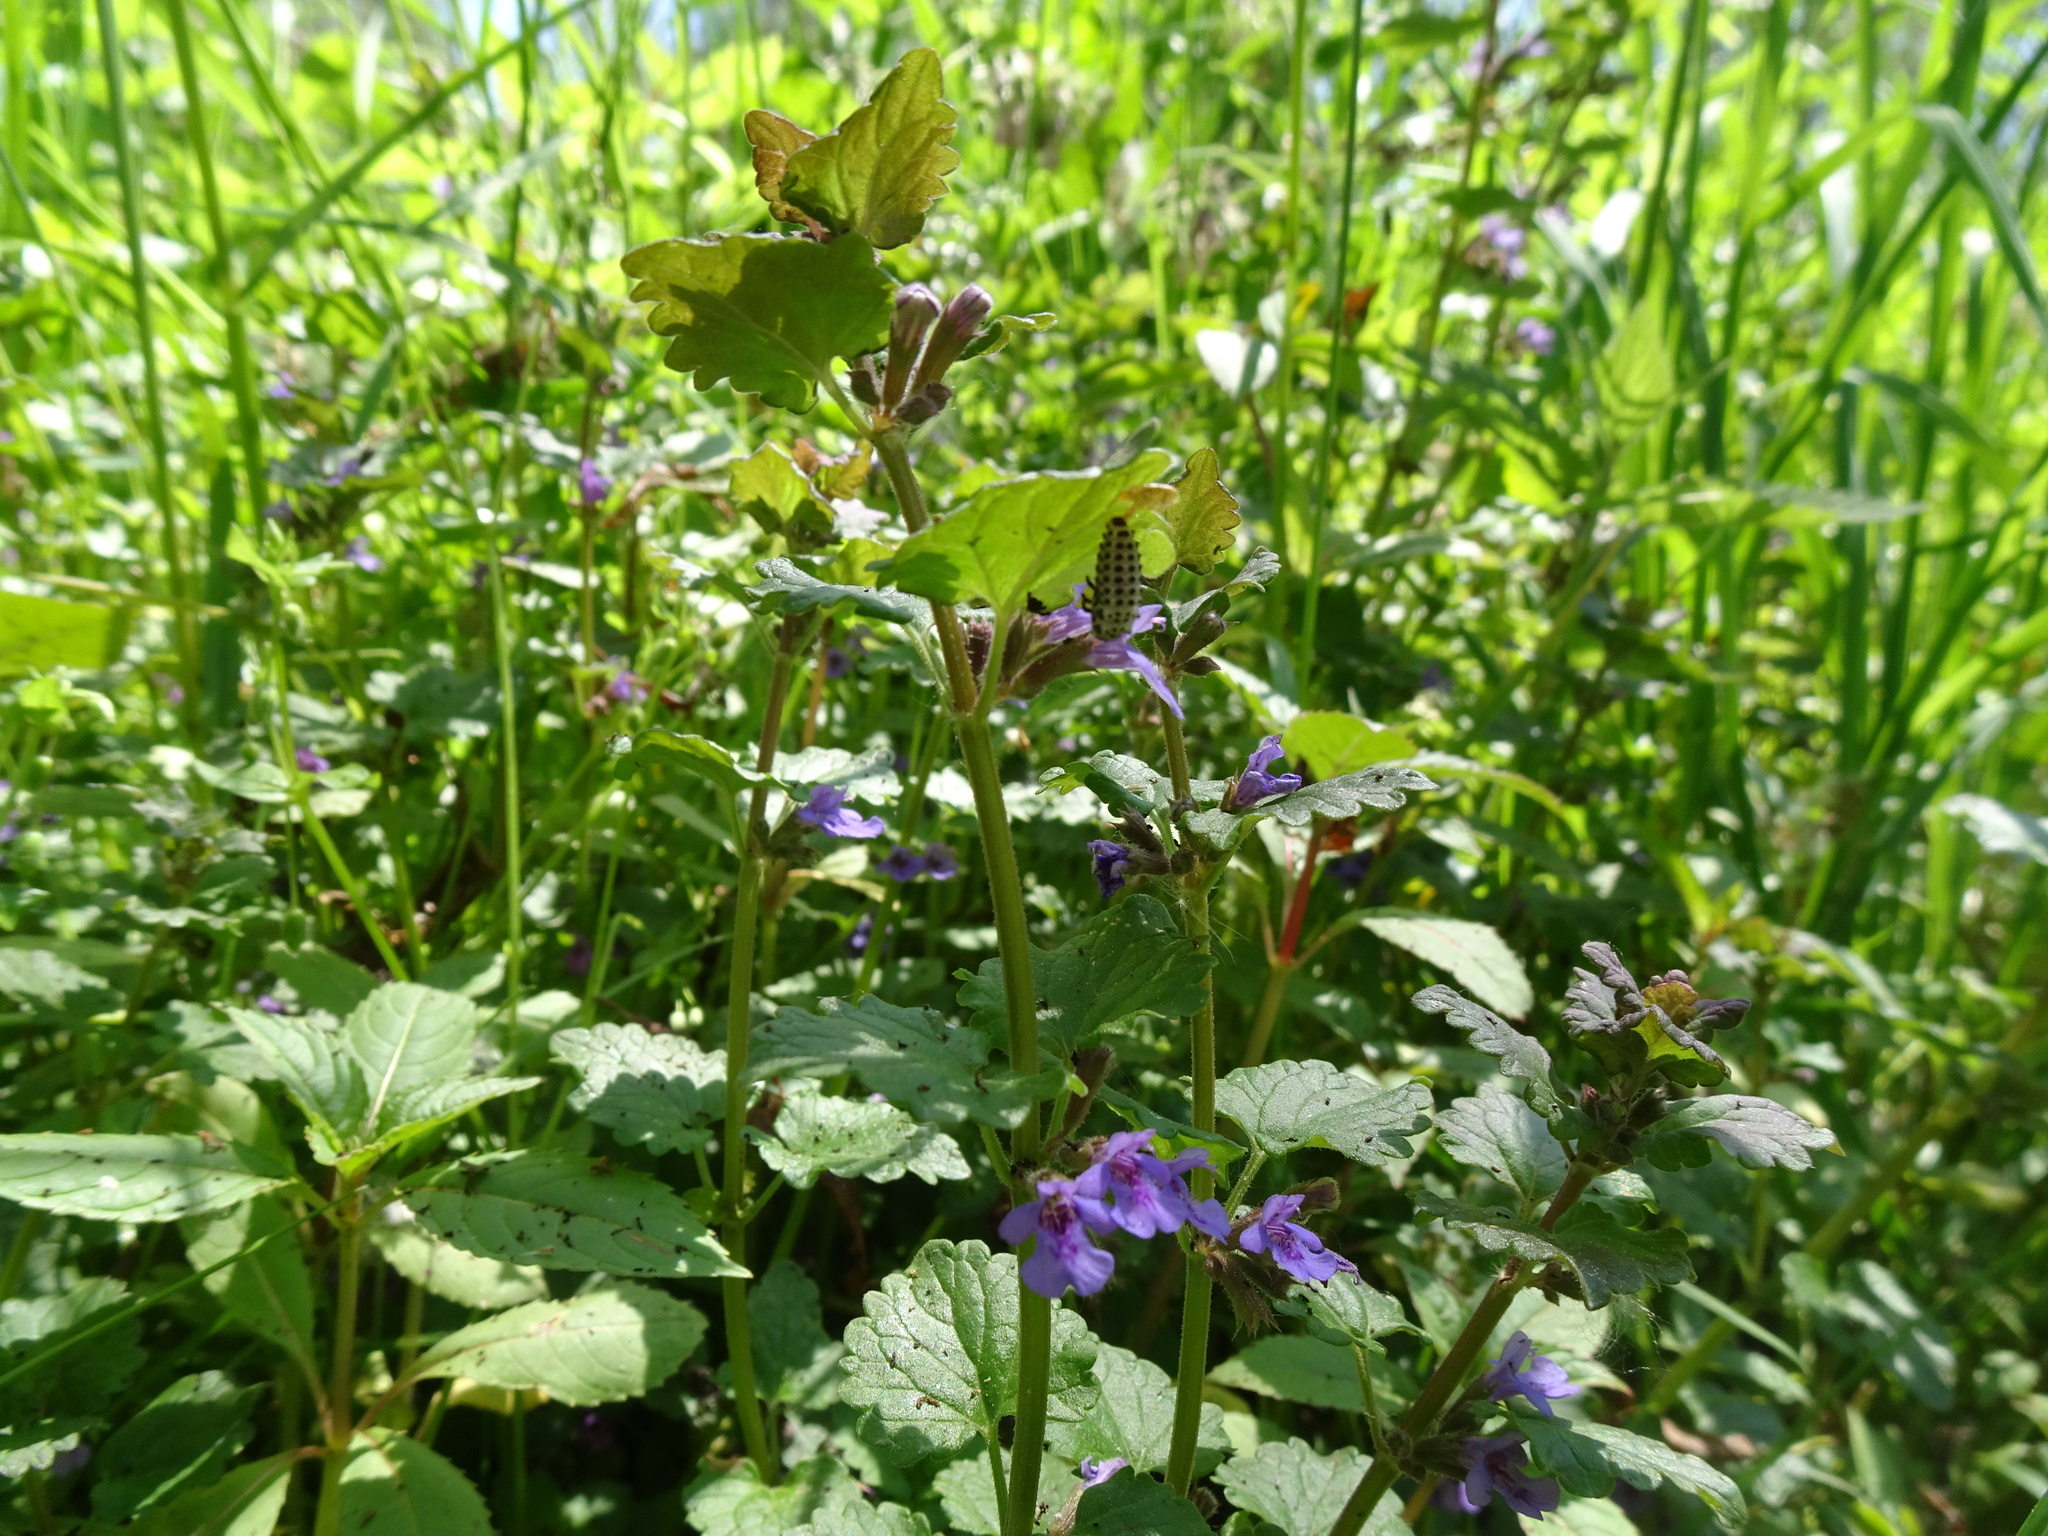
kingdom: Plantae
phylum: Tracheophyta
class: Magnoliopsida
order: Lamiales
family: Lamiaceae
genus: Glechoma
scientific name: Glechoma hederacea
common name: Ground ivy
